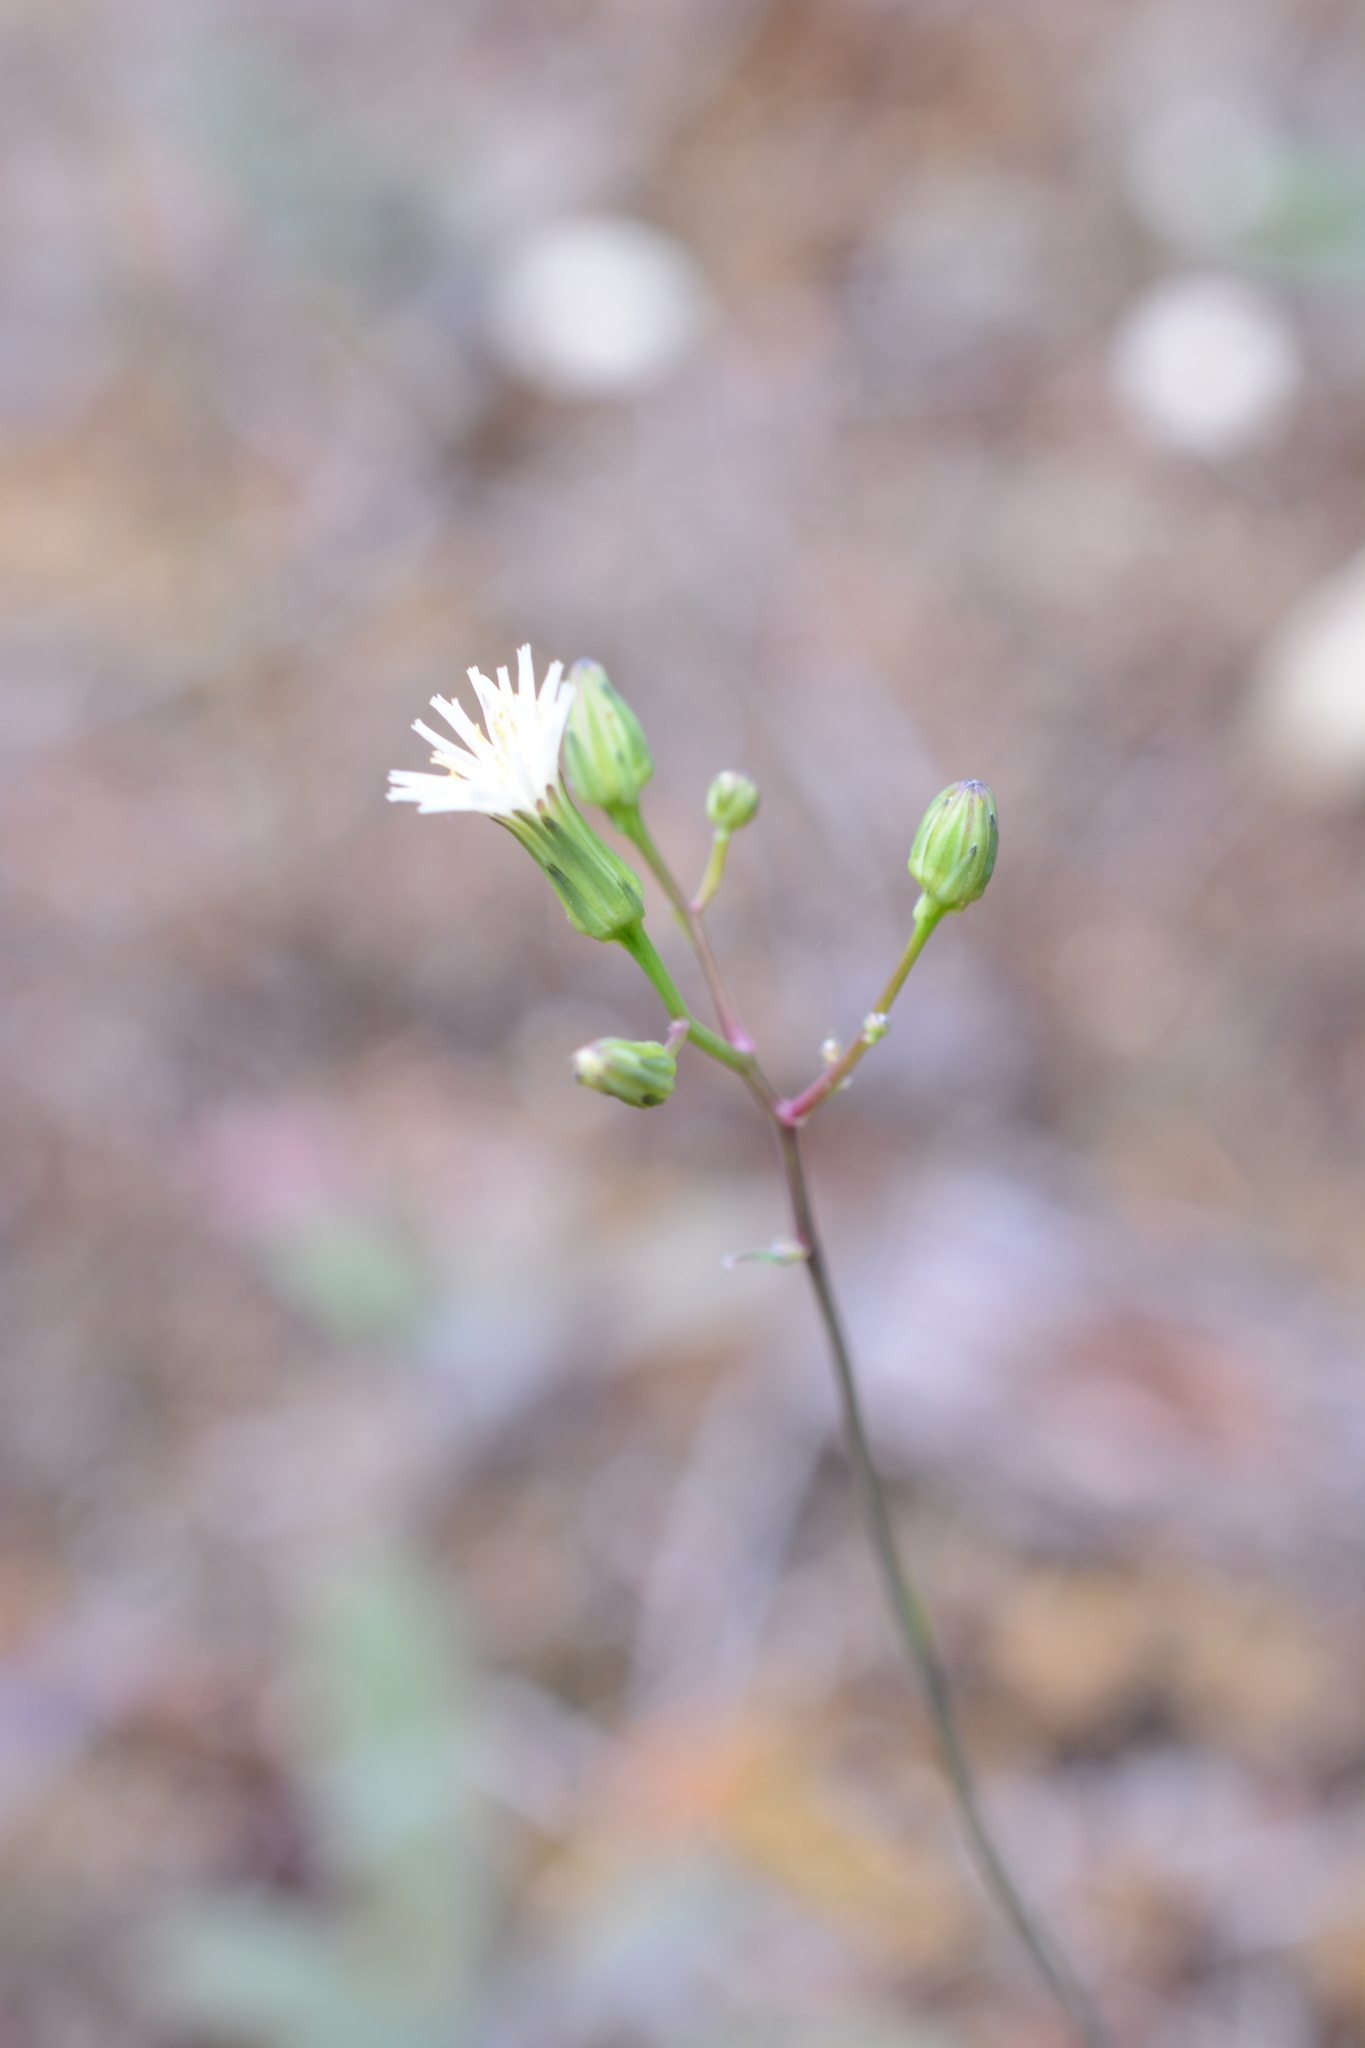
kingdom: Plantae
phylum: Tracheophyta
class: Magnoliopsida
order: Asterales
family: Asteraceae
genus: Hieracium
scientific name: Hieracium albiflorum
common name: White hawkweed
